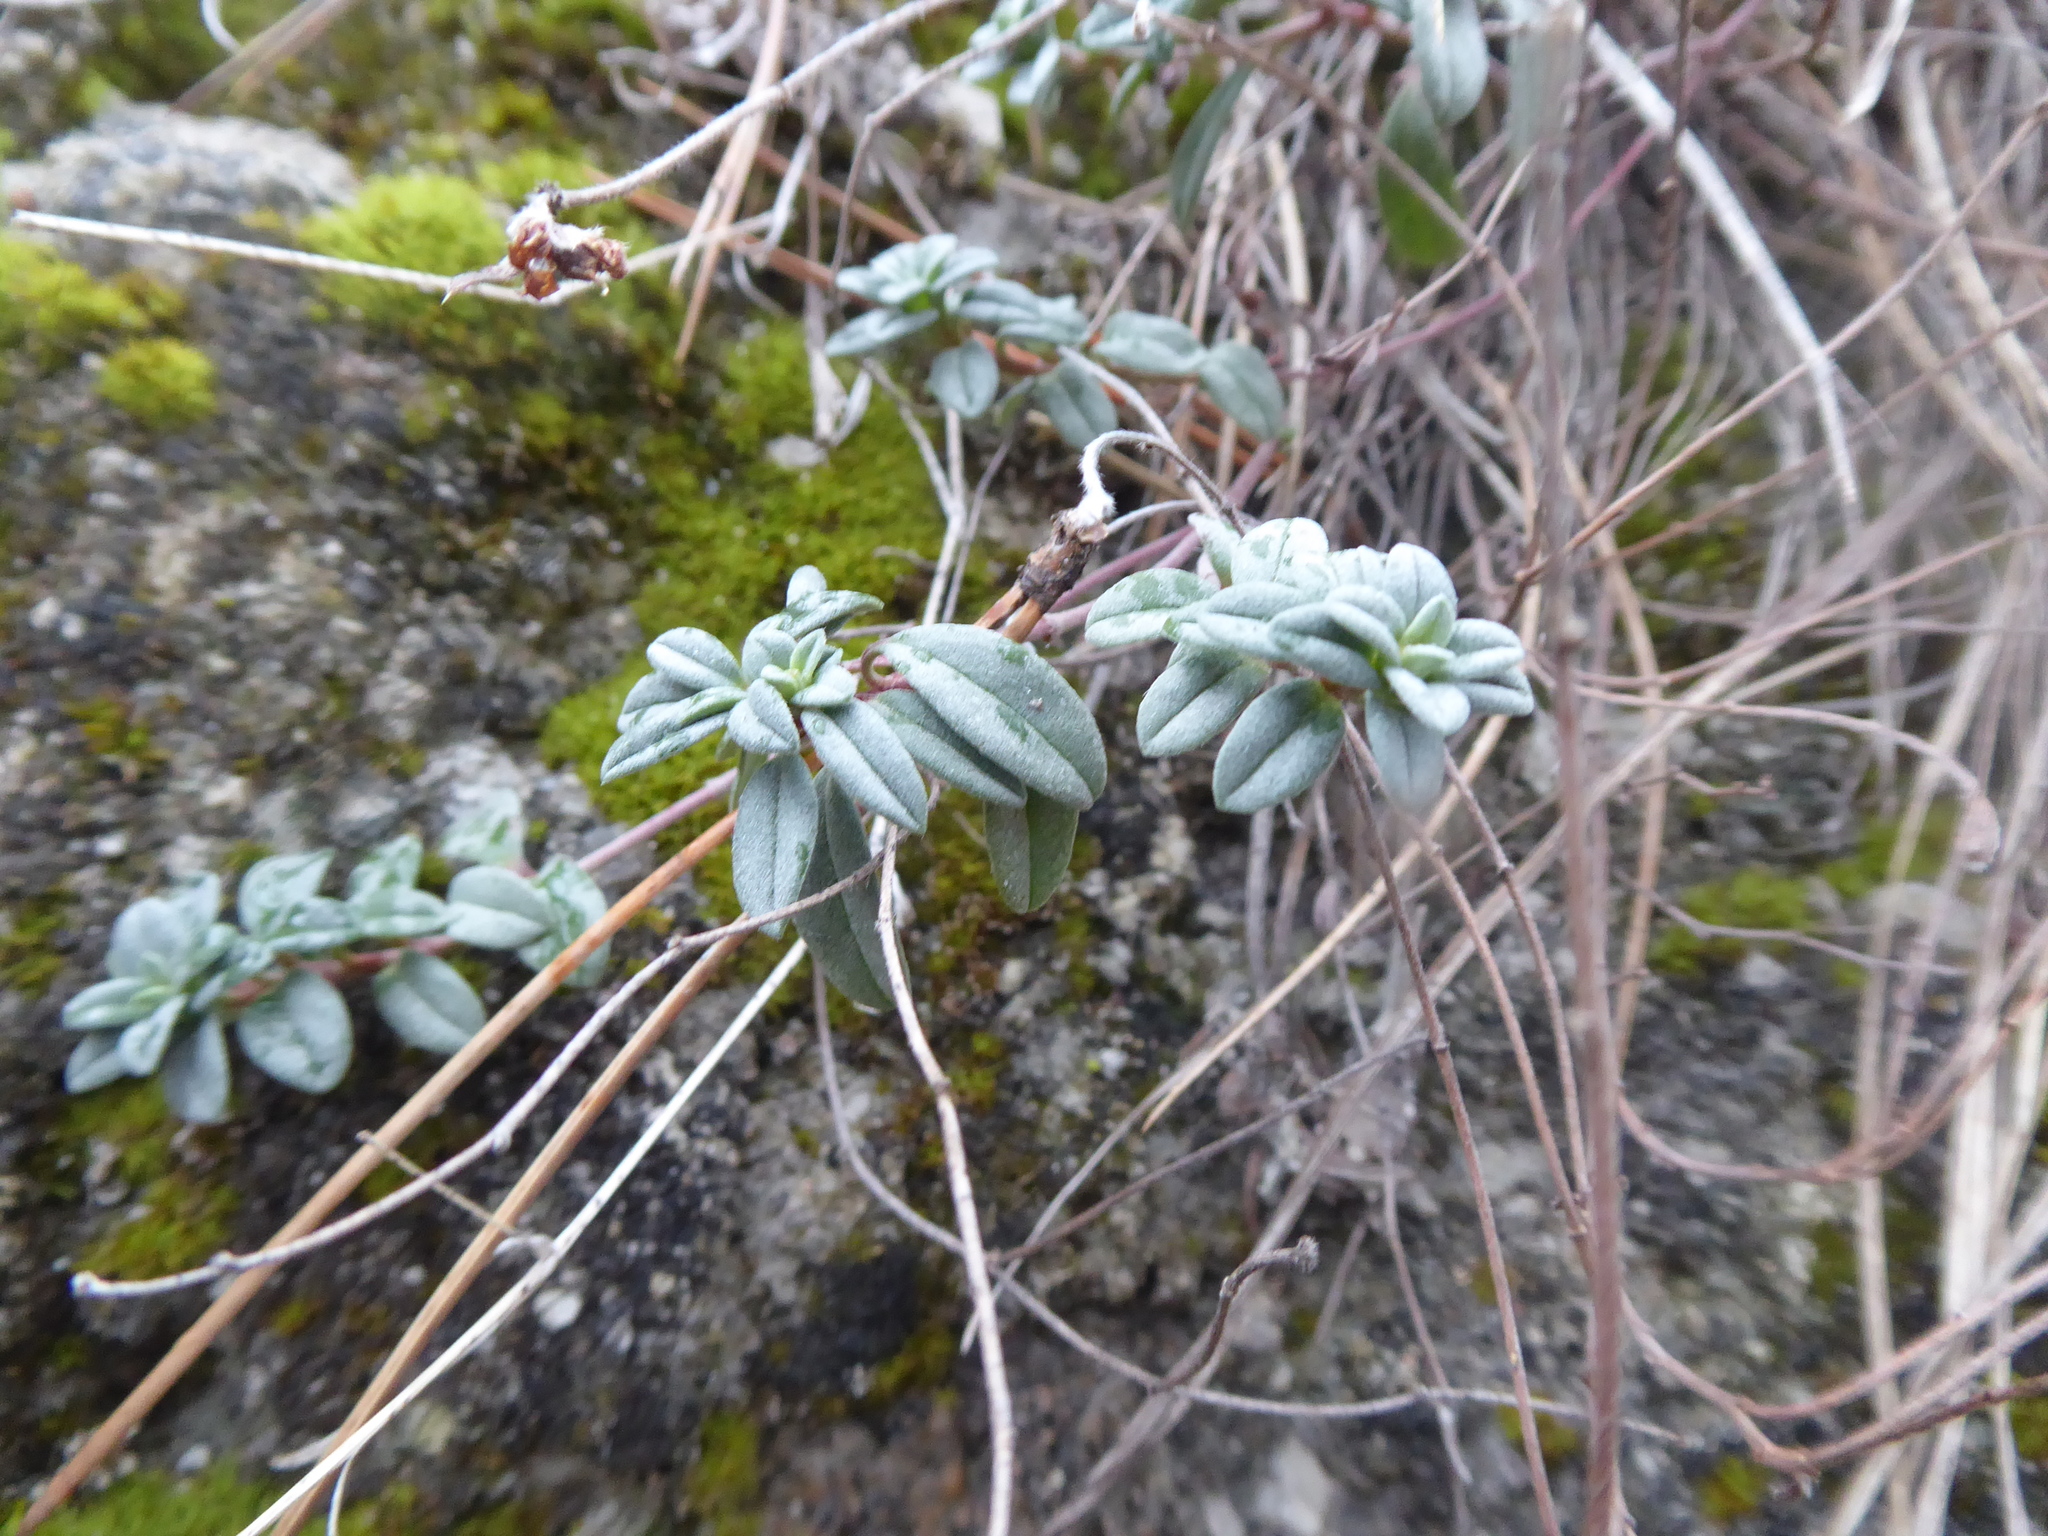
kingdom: Plantae
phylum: Tracheophyta
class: Magnoliopsida
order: Malvales
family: Cistaceae
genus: Helianthemum
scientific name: Helianthemum canum
